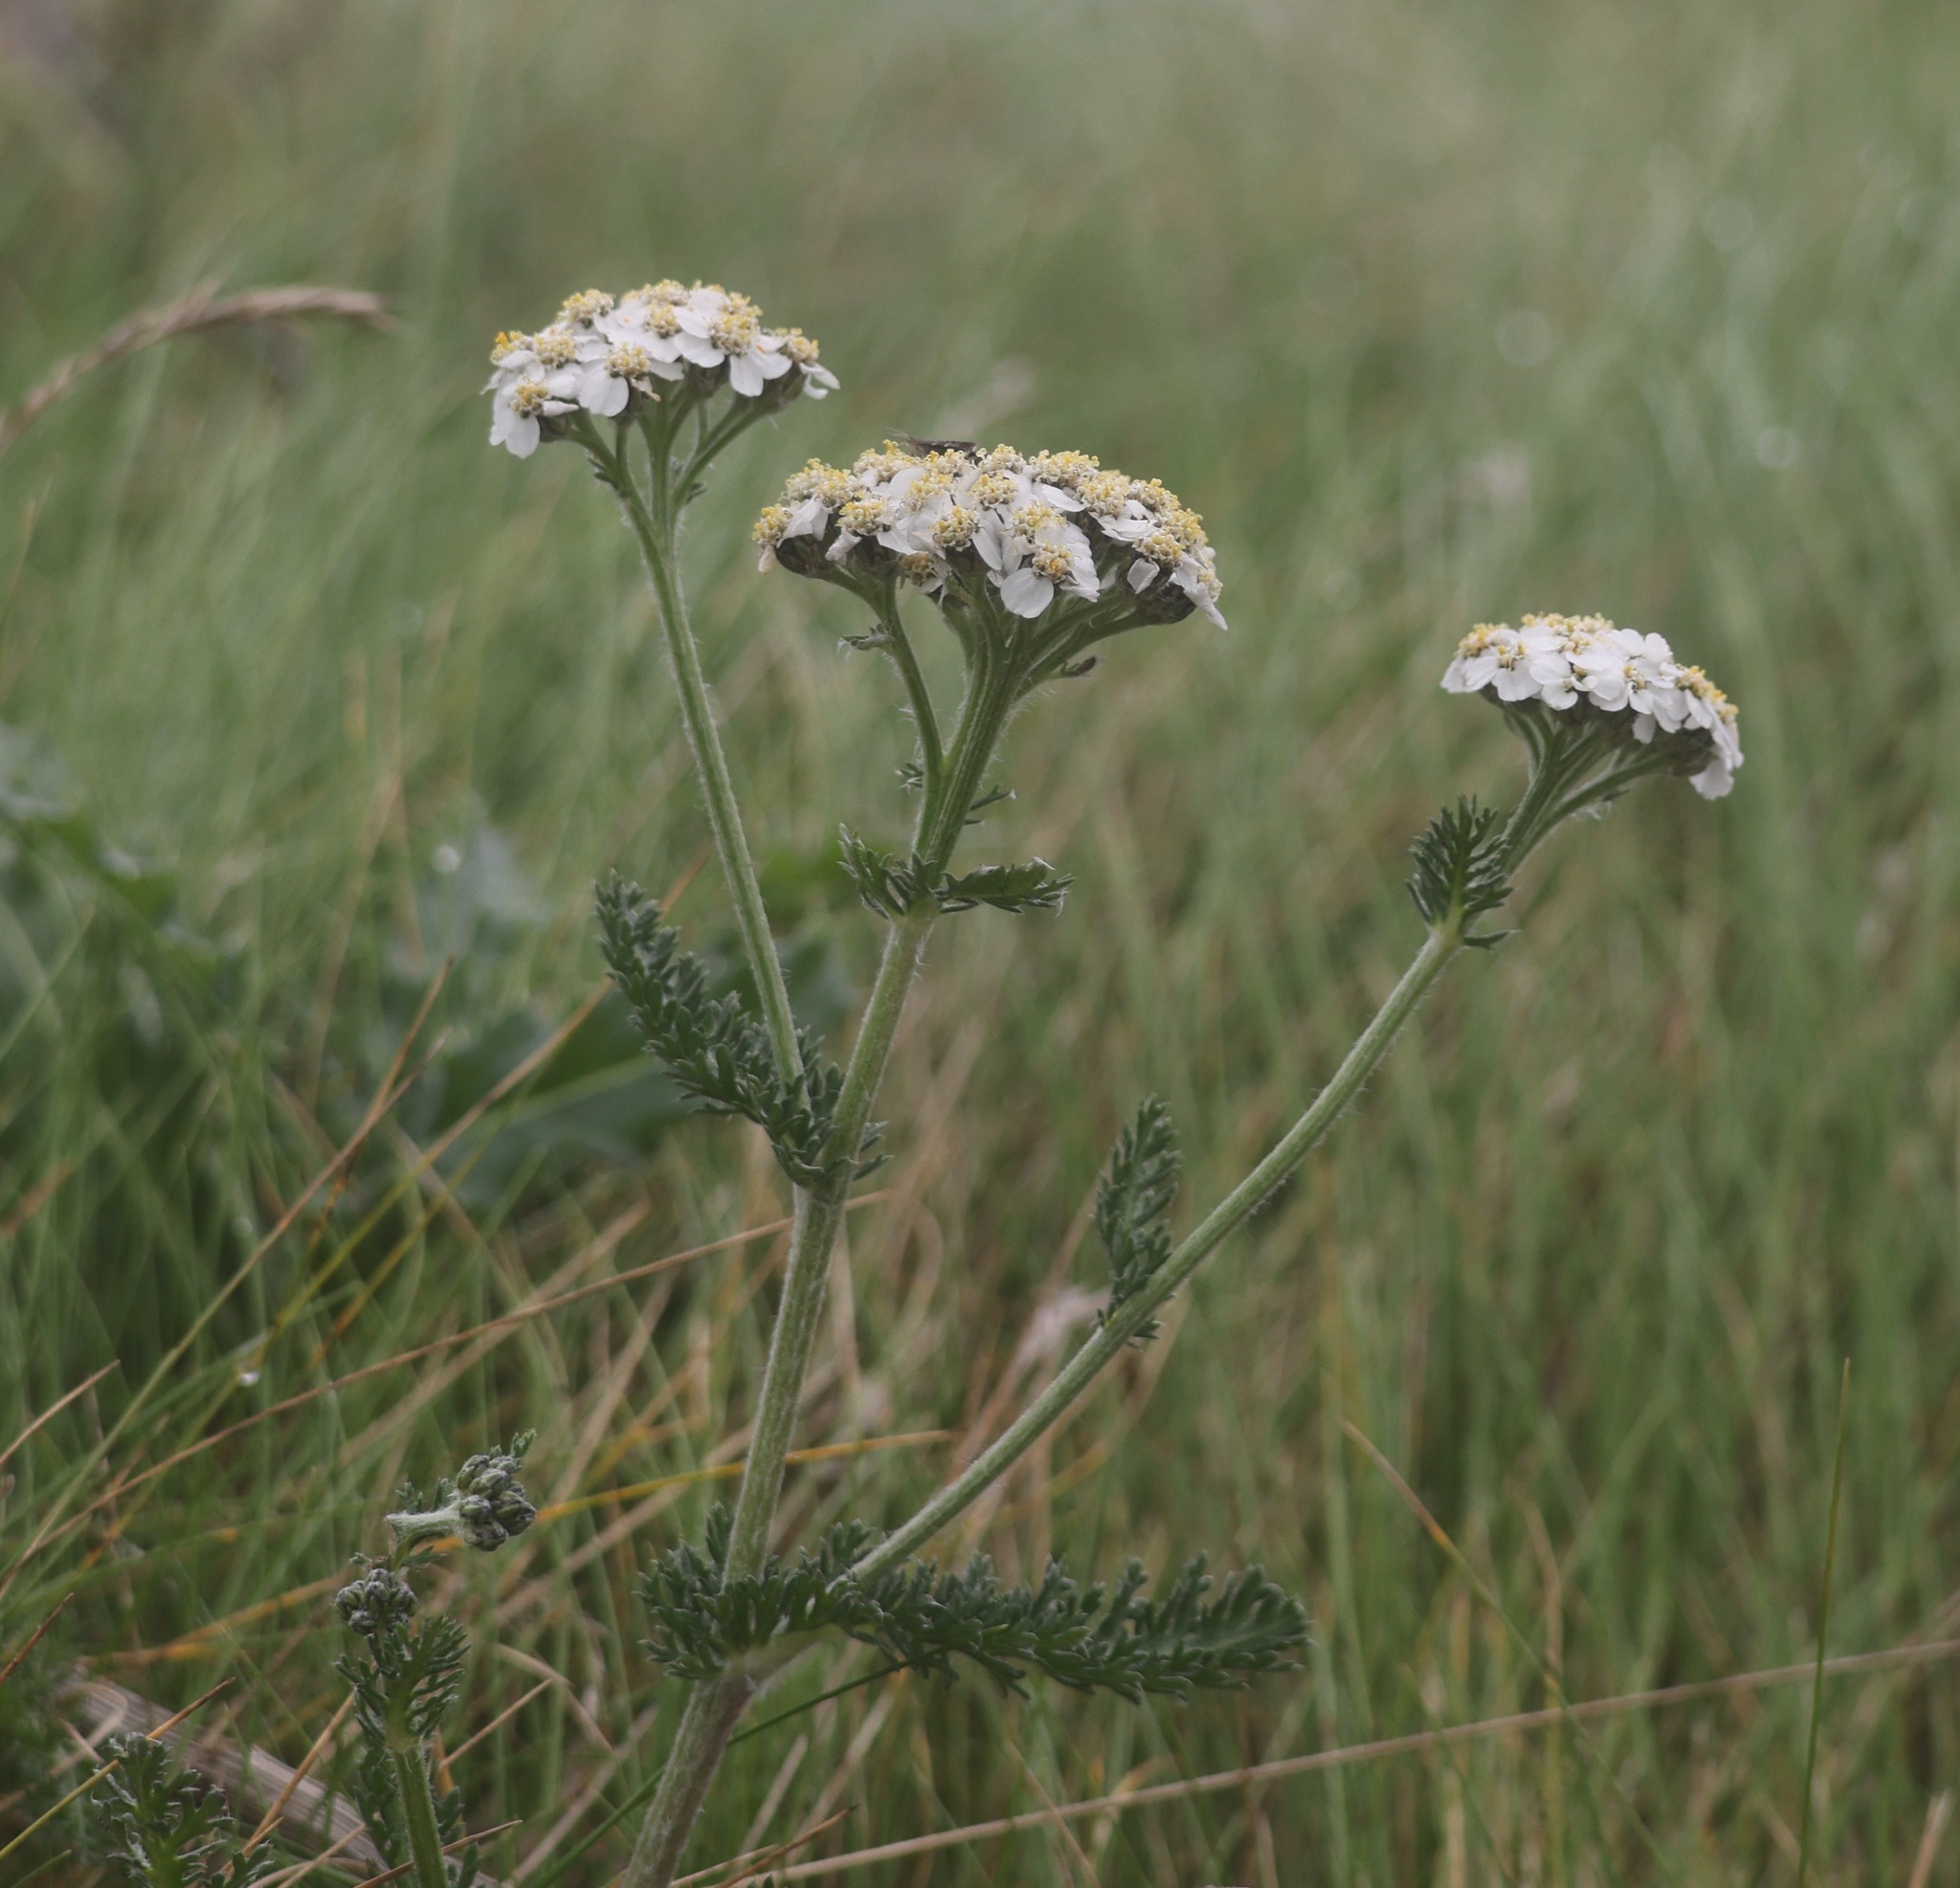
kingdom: Plantae
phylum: Tracheophyta
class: Magnoliopsida
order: Asterales
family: Asteraceae
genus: Achillea
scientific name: Achillea millefolium
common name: Yarrow
